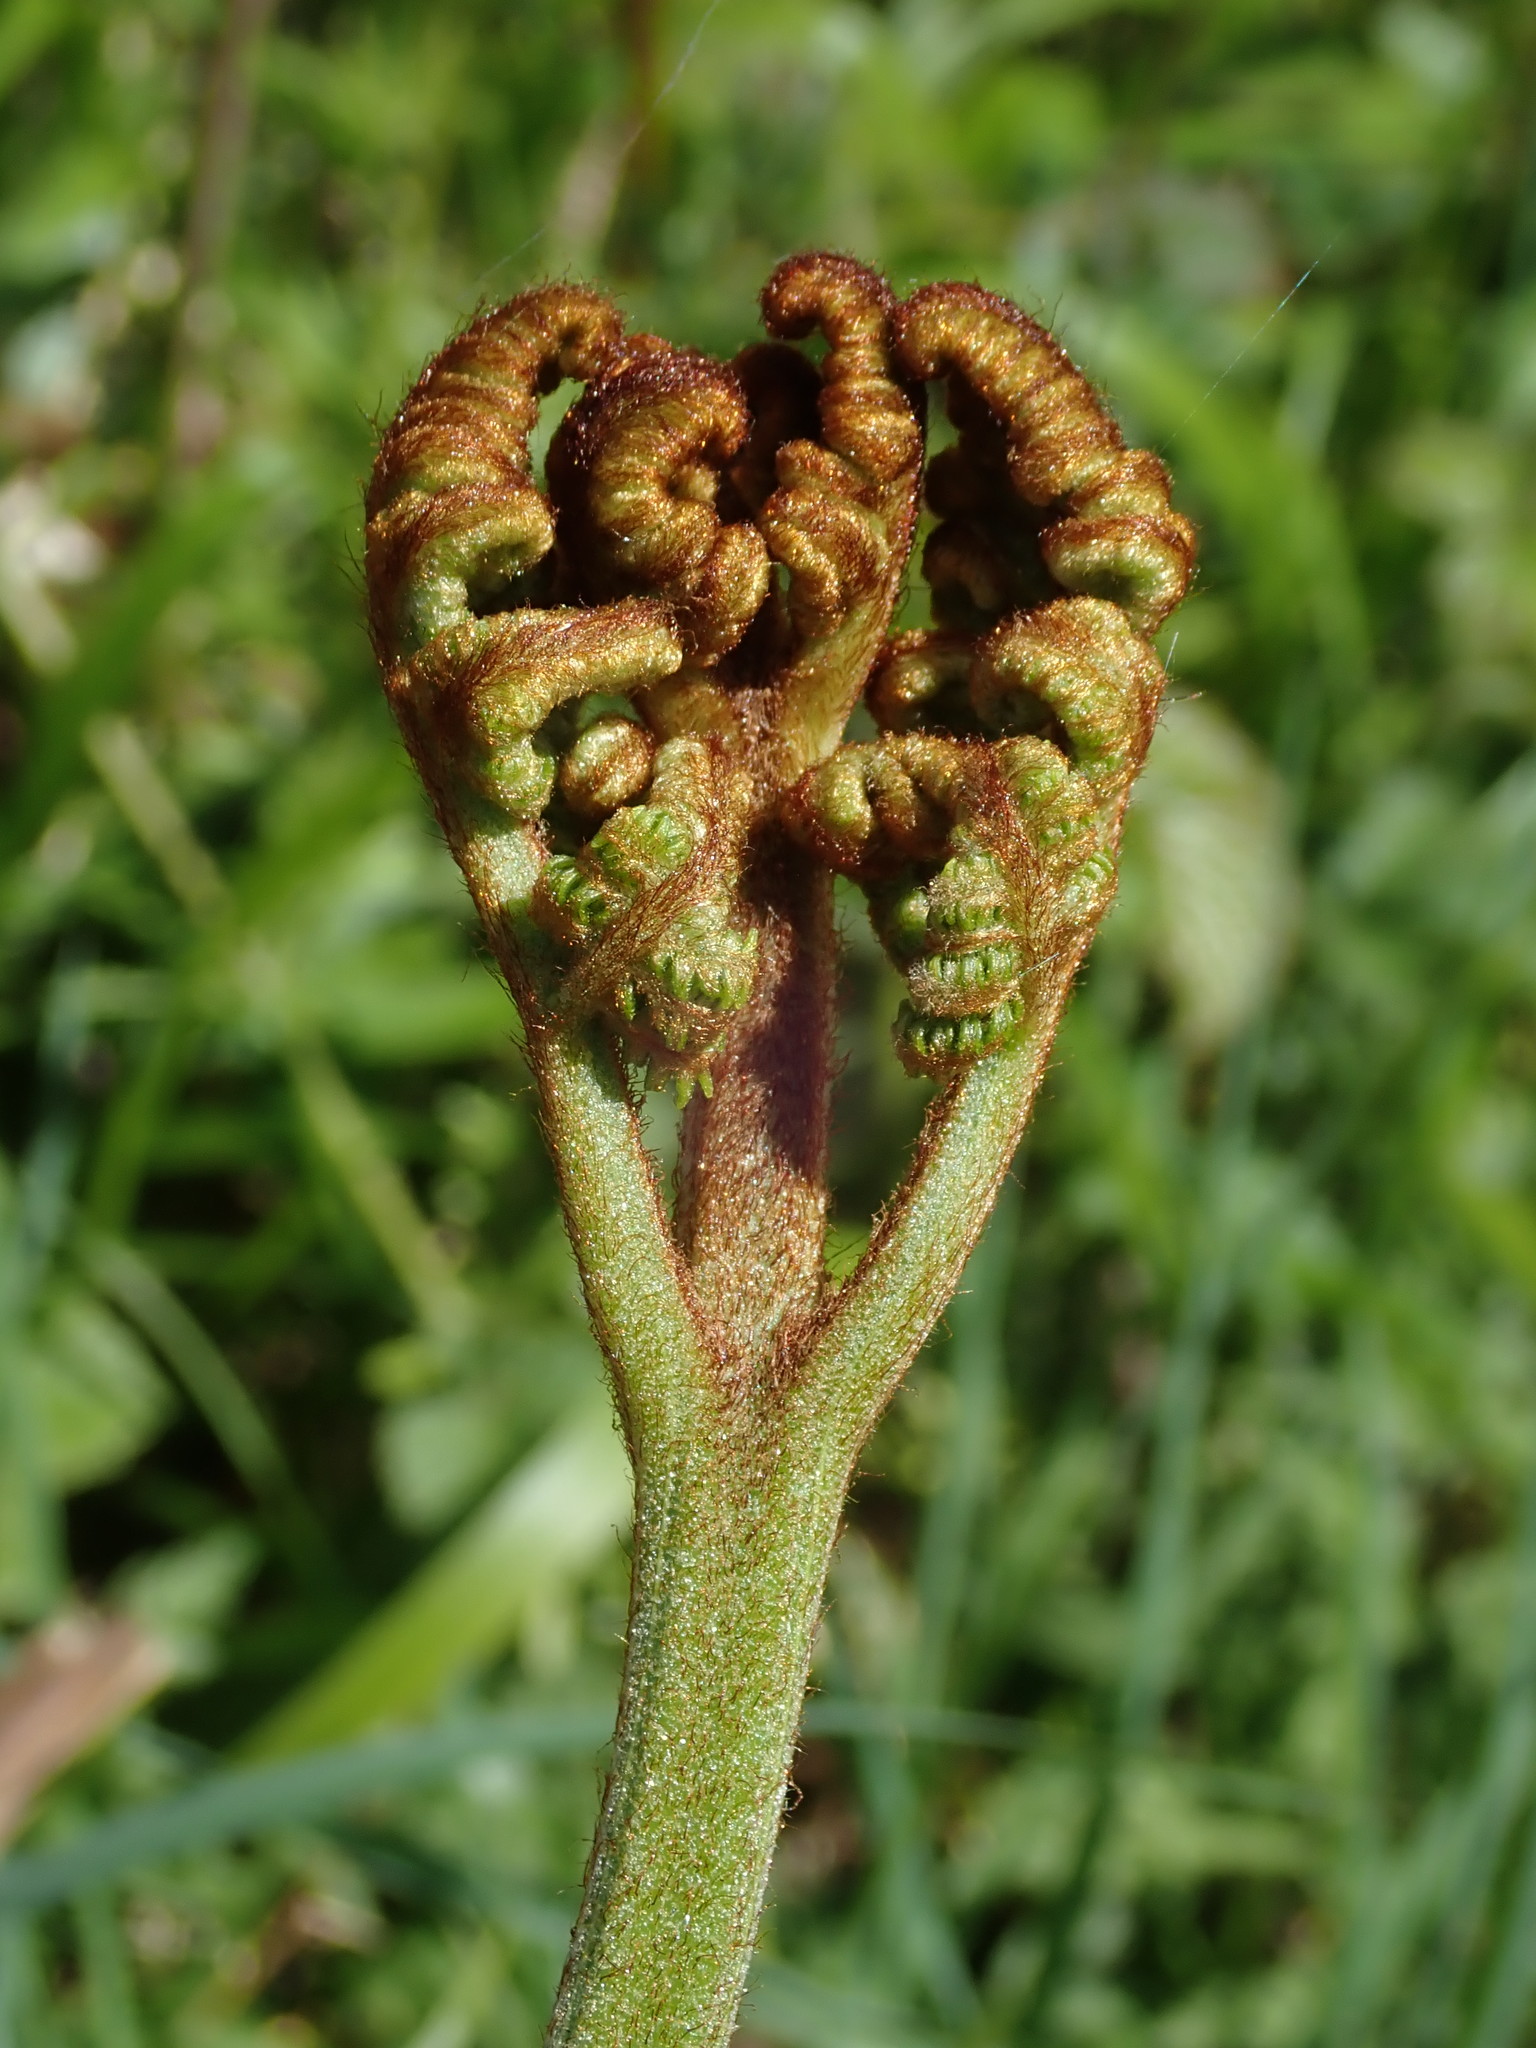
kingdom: Plantae
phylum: Tracheophyta
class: Polypodiopsida
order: Polypodiales
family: Dennstaedtiaceae
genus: Pteridium
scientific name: Pteridium aquilinum
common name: Bracken
